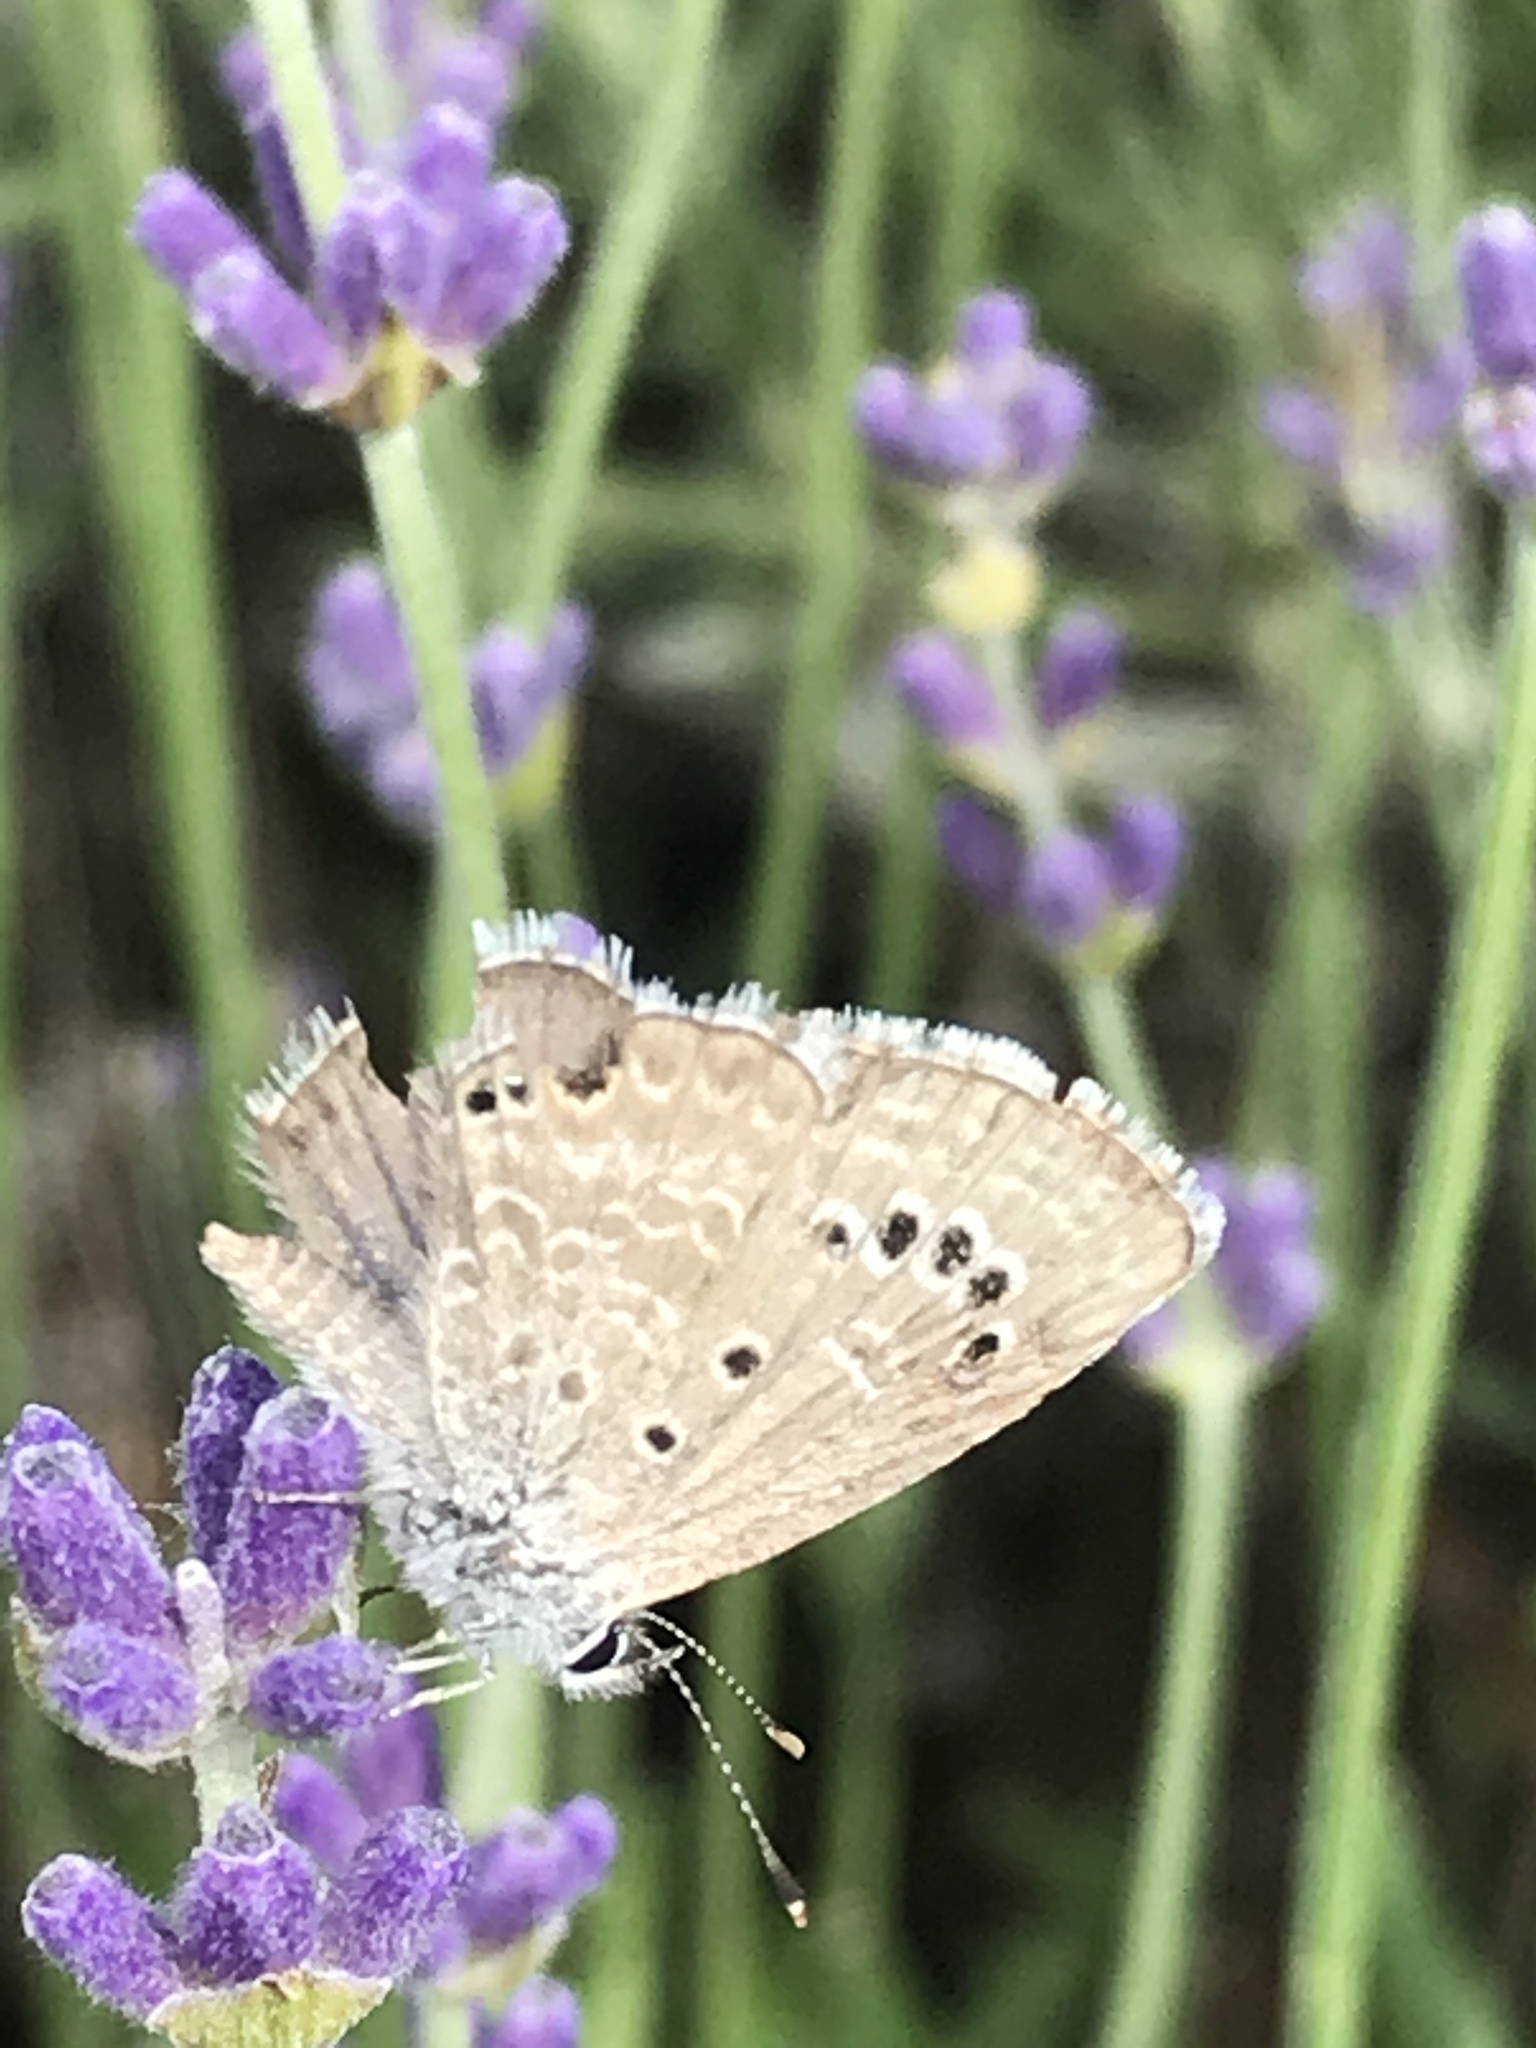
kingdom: Animalia
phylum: Arthropoda
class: Insecta
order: Lepidoptera
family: Lycaenidae
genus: Echinargus
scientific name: Echinargus isola
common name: Reakirt's blue
